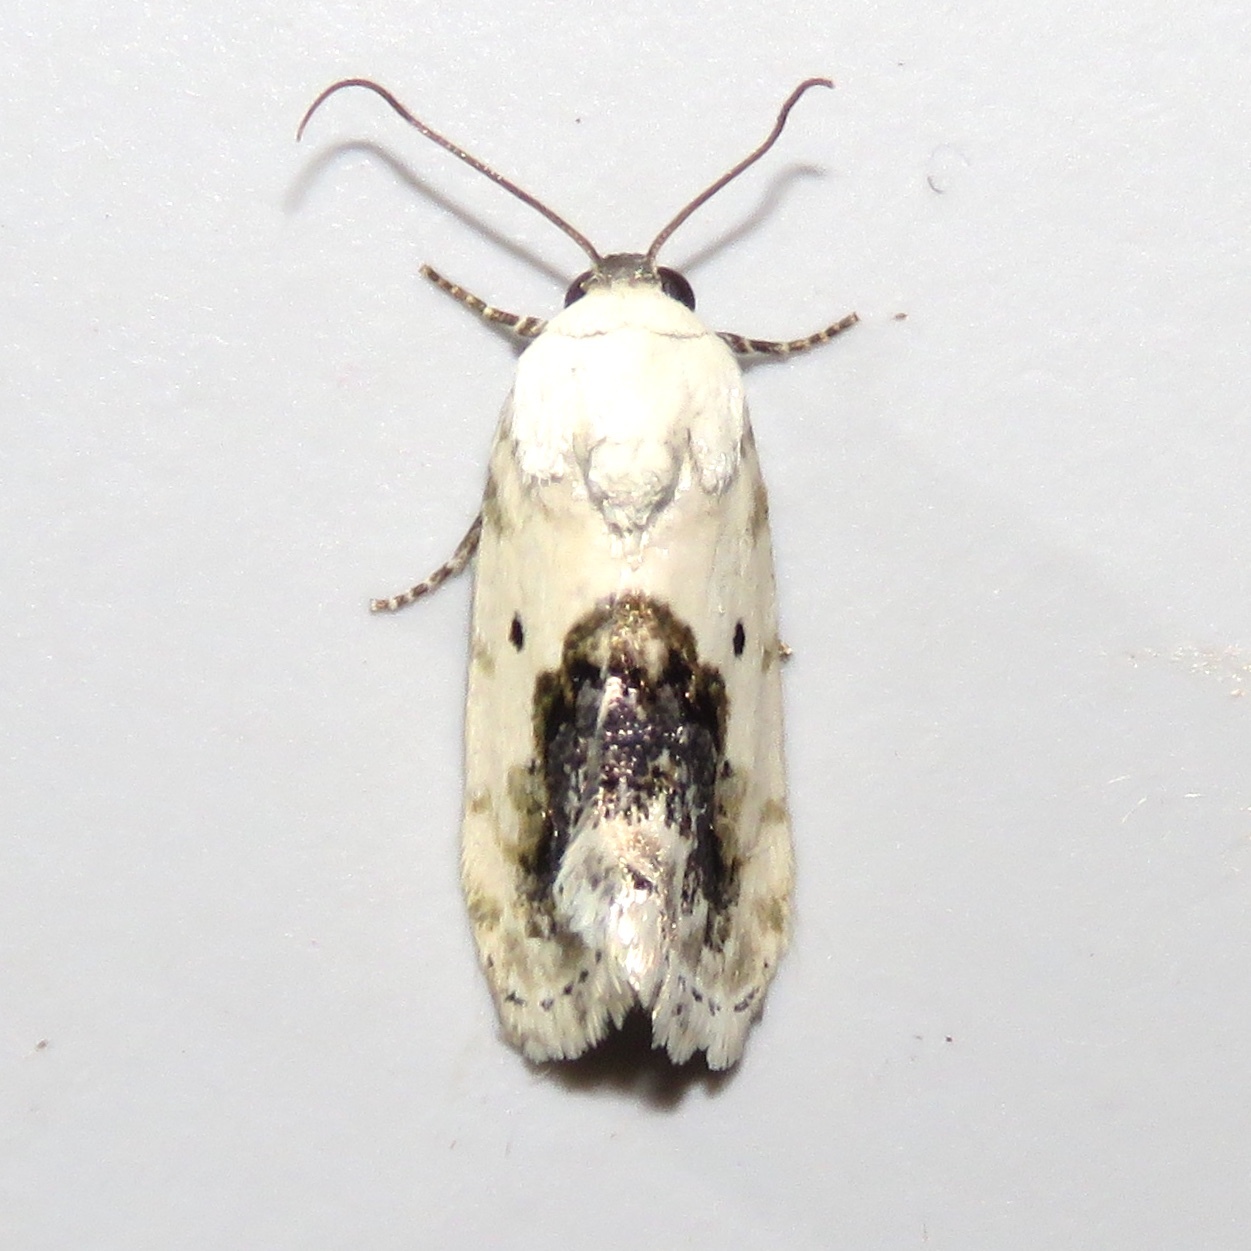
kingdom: Animalia
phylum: Arthropoda
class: Insecta
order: Lepidoptera
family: Noctuidae
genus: Acontia
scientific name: Acontia erastrioides
